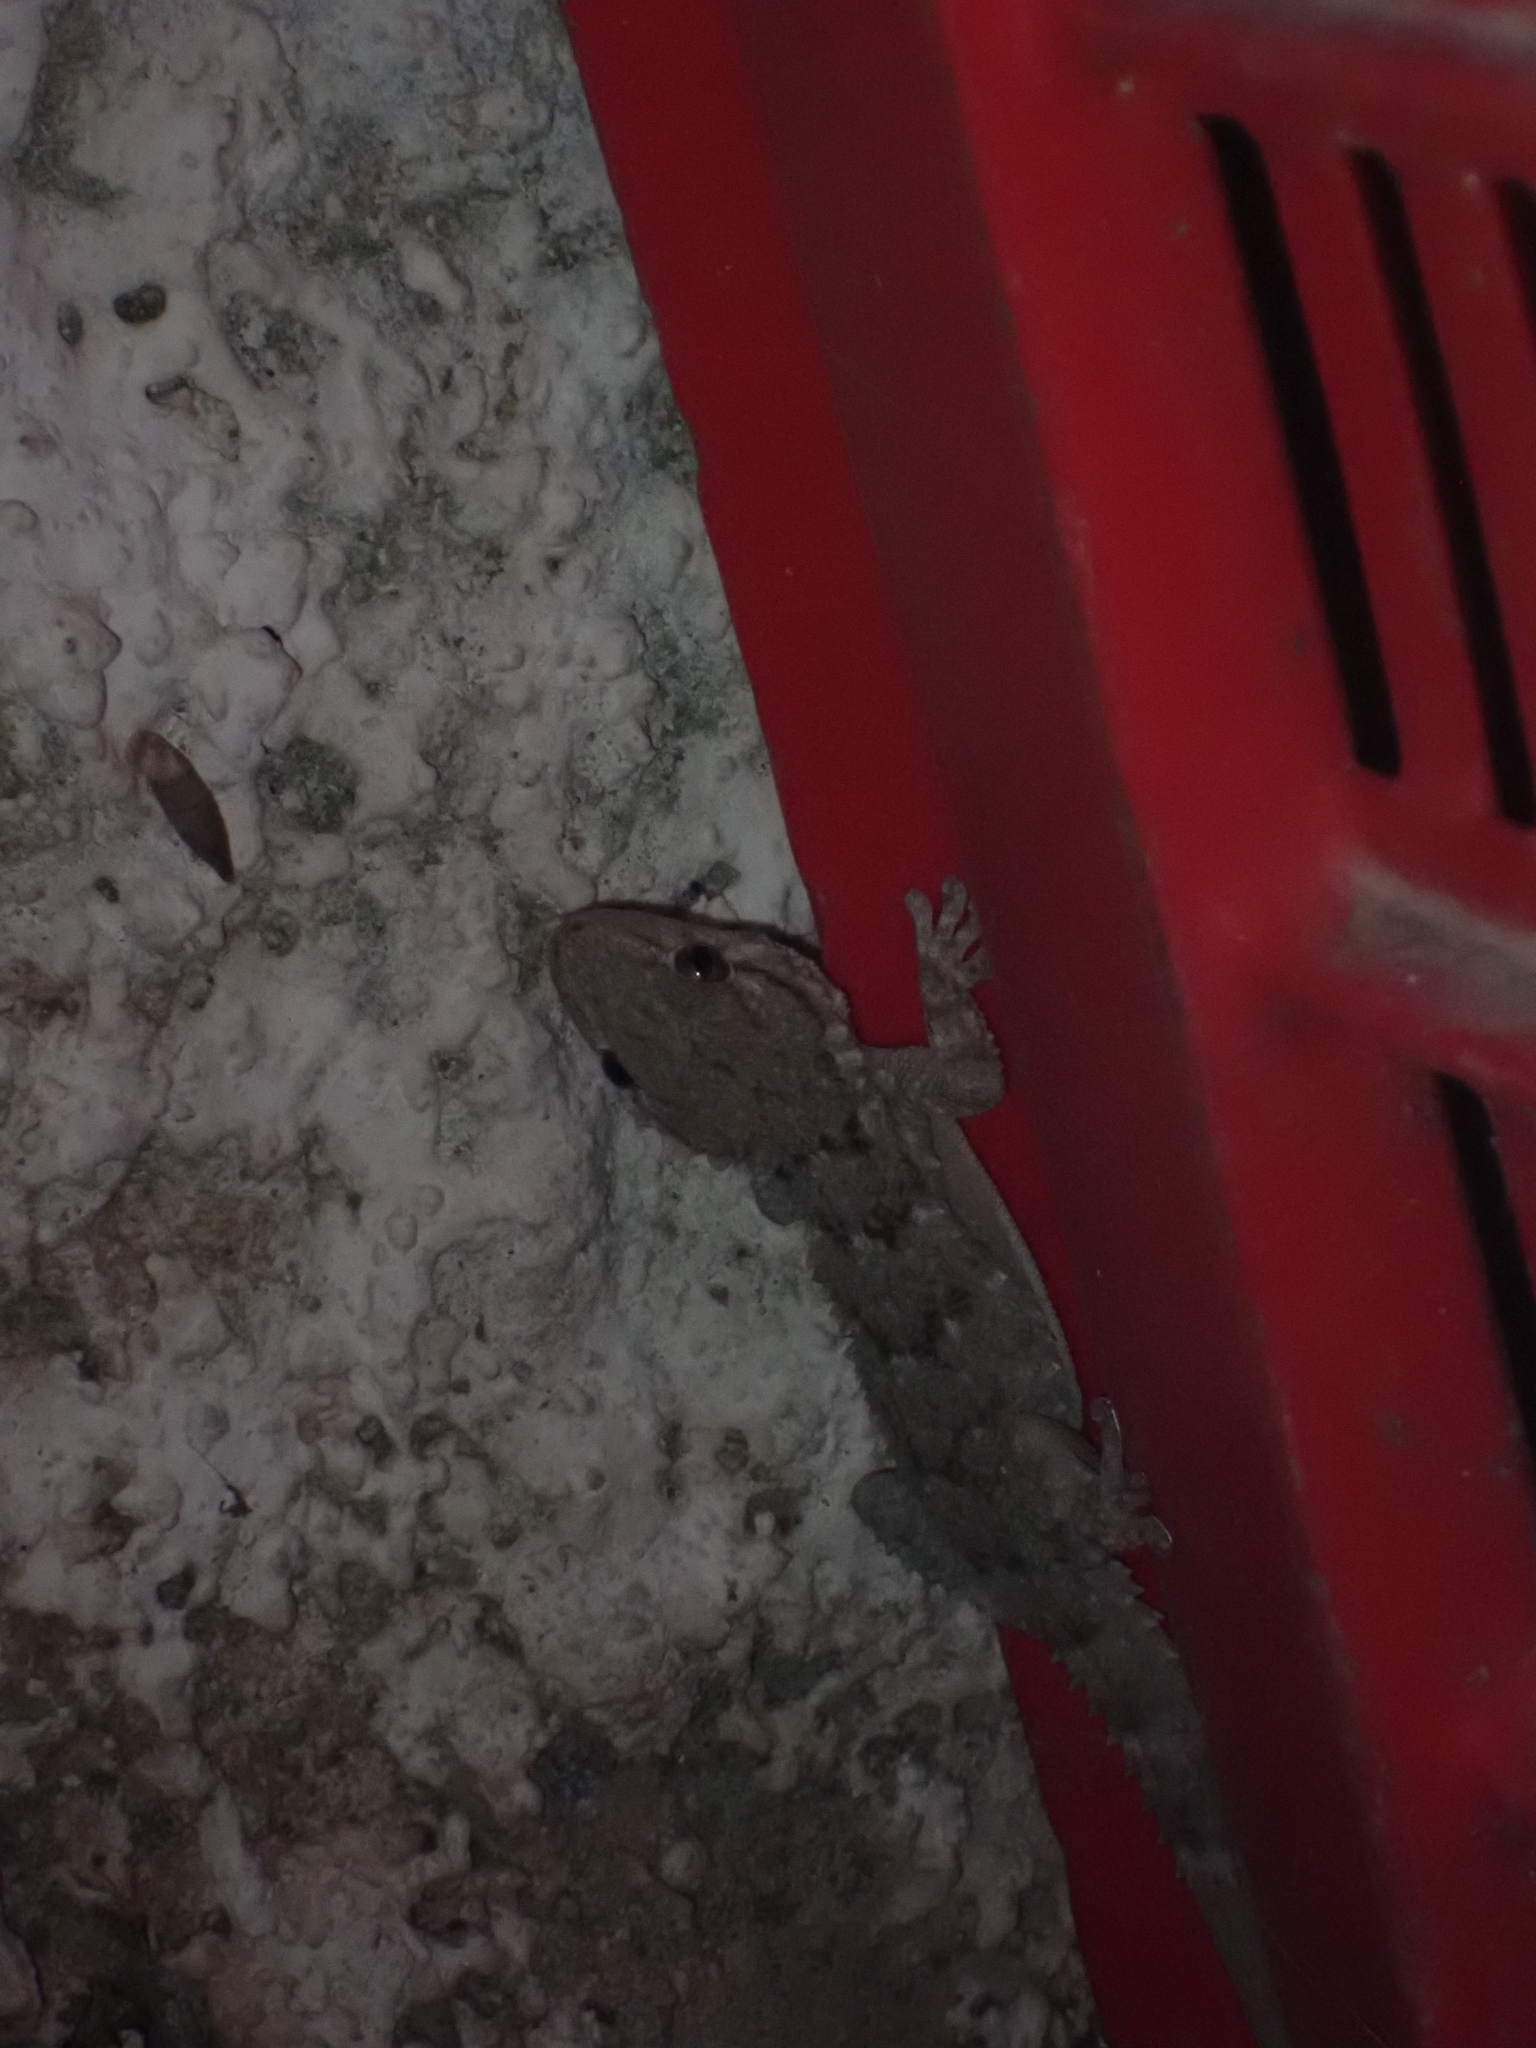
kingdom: Animalia
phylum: Chordata
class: Squamata
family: Phyllodactylidae
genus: Tarentola
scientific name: Tarentola mauritanica
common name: Moorish gecko
